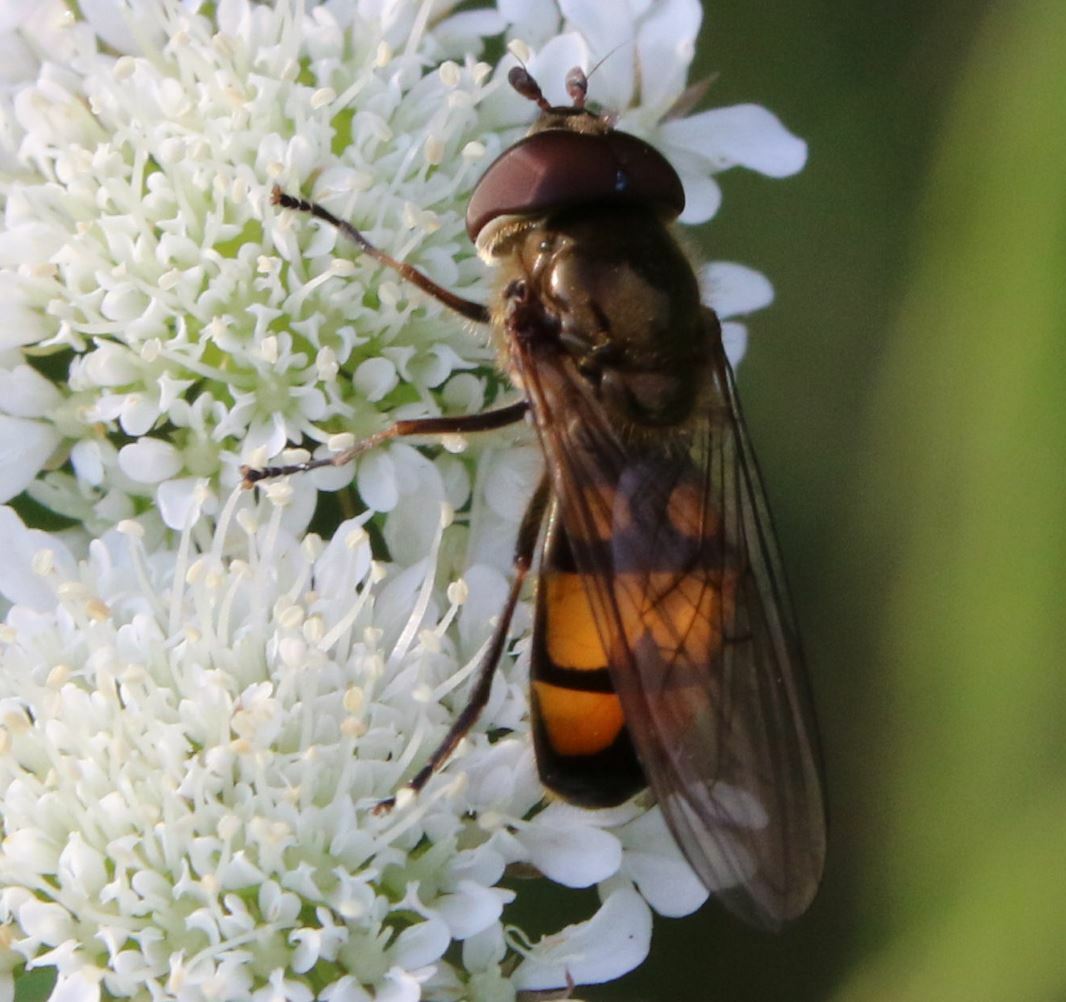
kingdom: Animalia
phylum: Arthropoda
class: Insecta
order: Diptera
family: Syrphidae
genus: Xanthandrus
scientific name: Xanthandrus comtus
